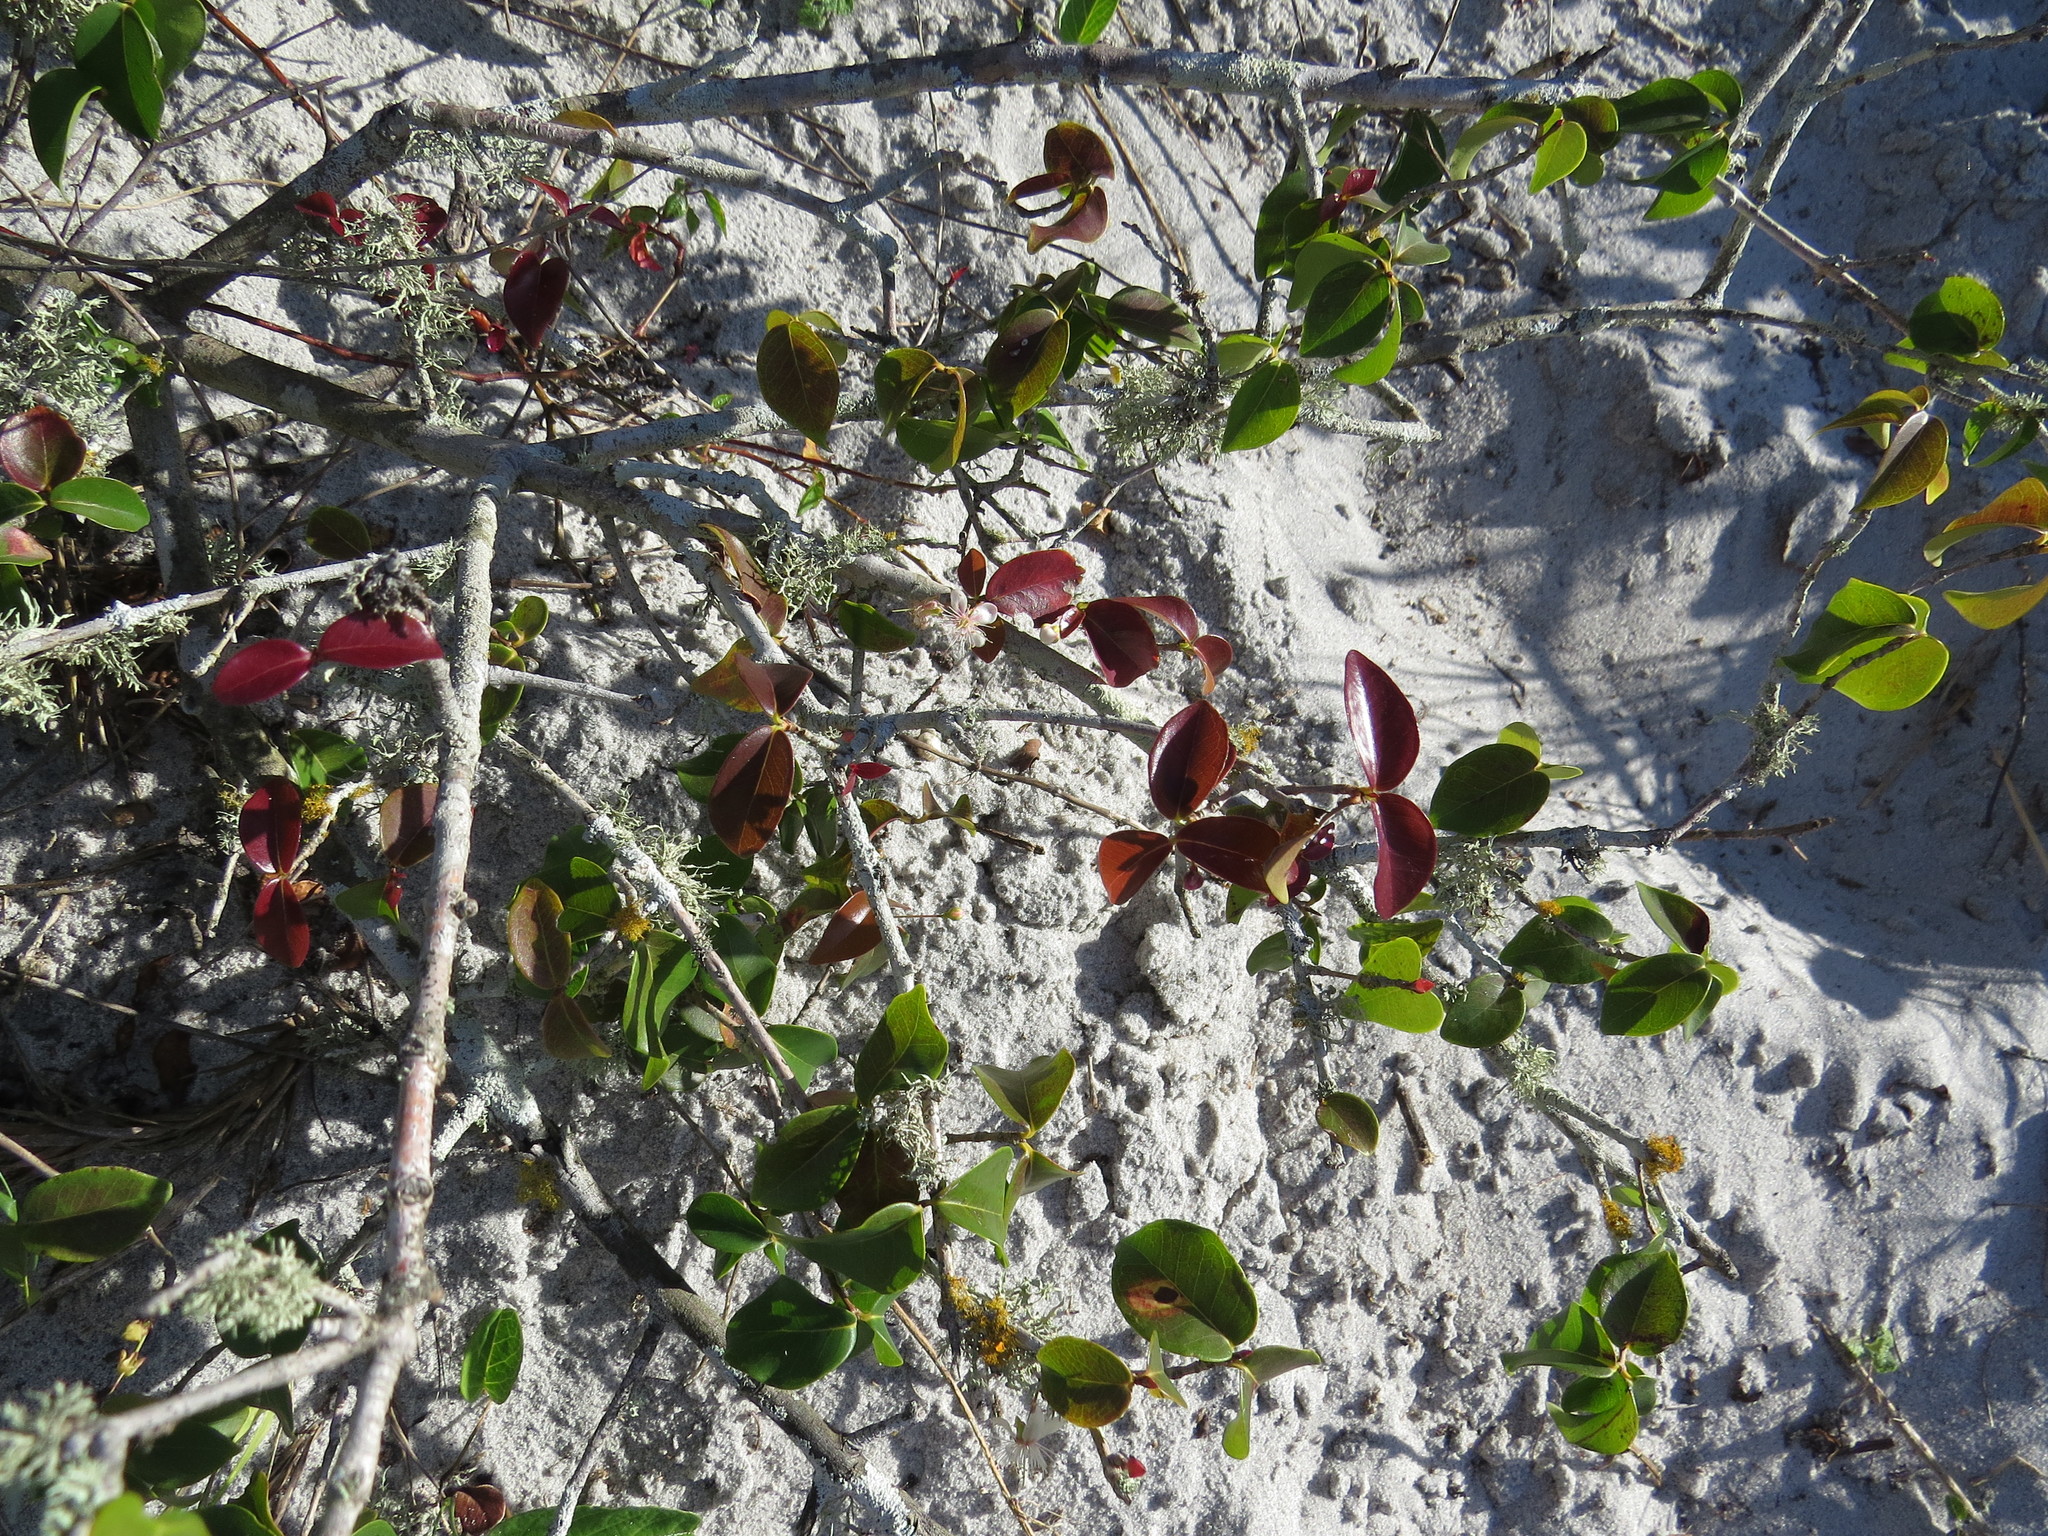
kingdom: Plantae
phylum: Tracheophyta
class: Magnoliopsida
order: Myrtales
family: Myrtaceae
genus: Eugenia
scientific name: Eugenia uniflora
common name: Surinam cherry
